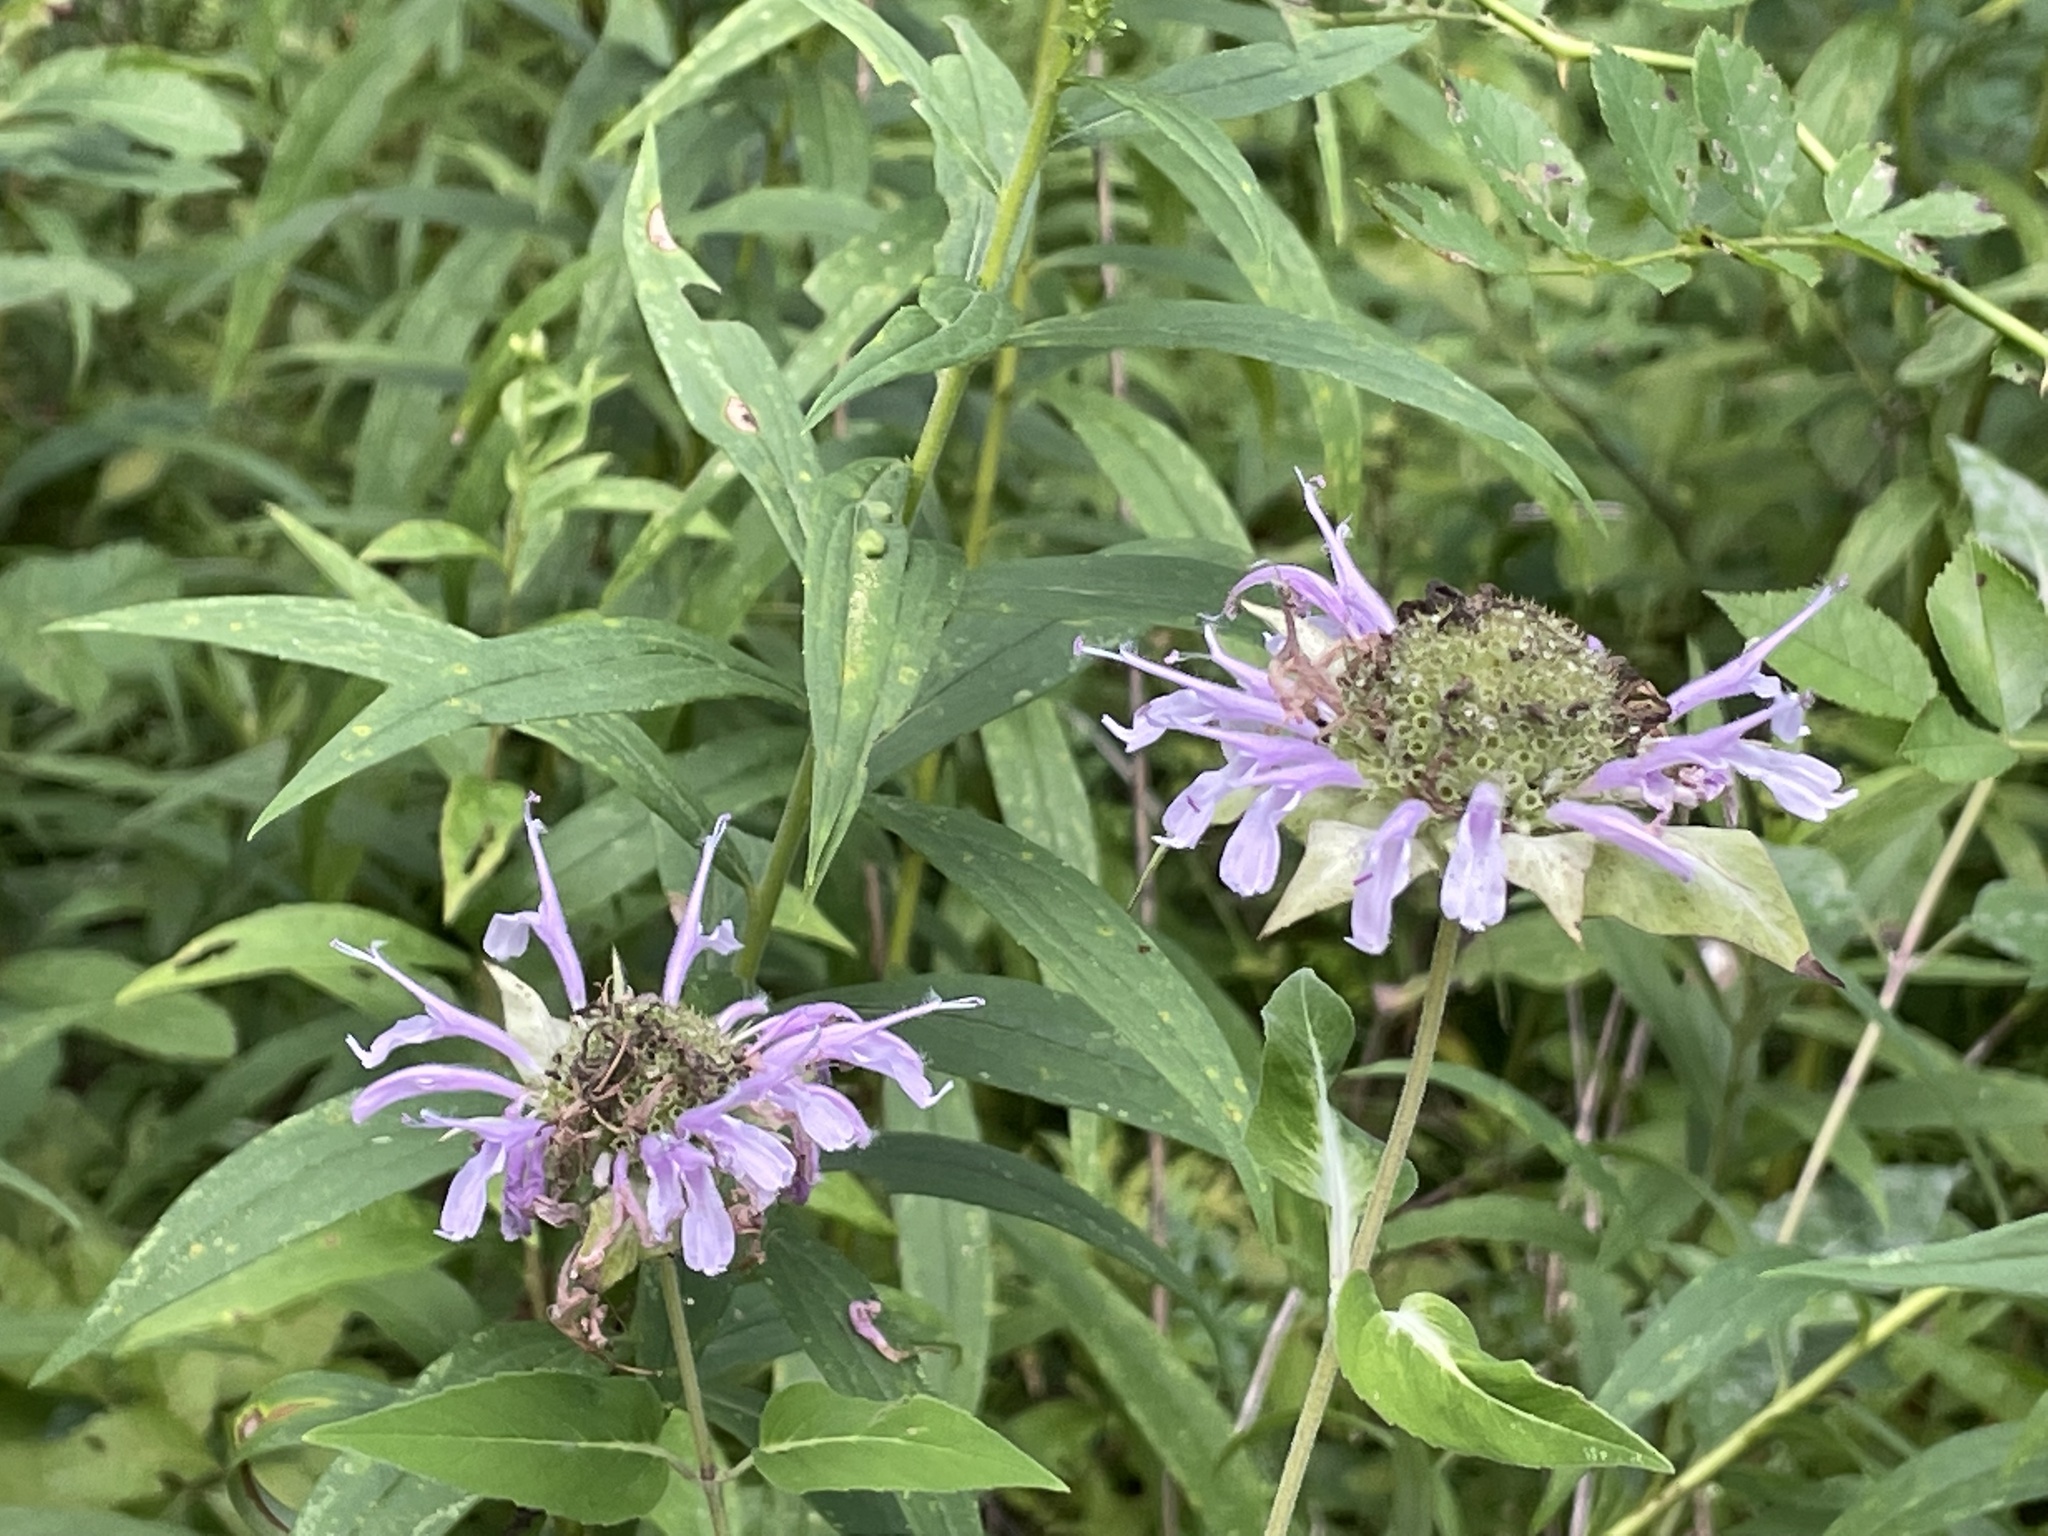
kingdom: Plantae
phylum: Tracheophyta
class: Magnoliopsida
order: Lamiales
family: Lamiaceae
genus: Monarda
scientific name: Monarda fistulosa
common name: Purple beebalm
